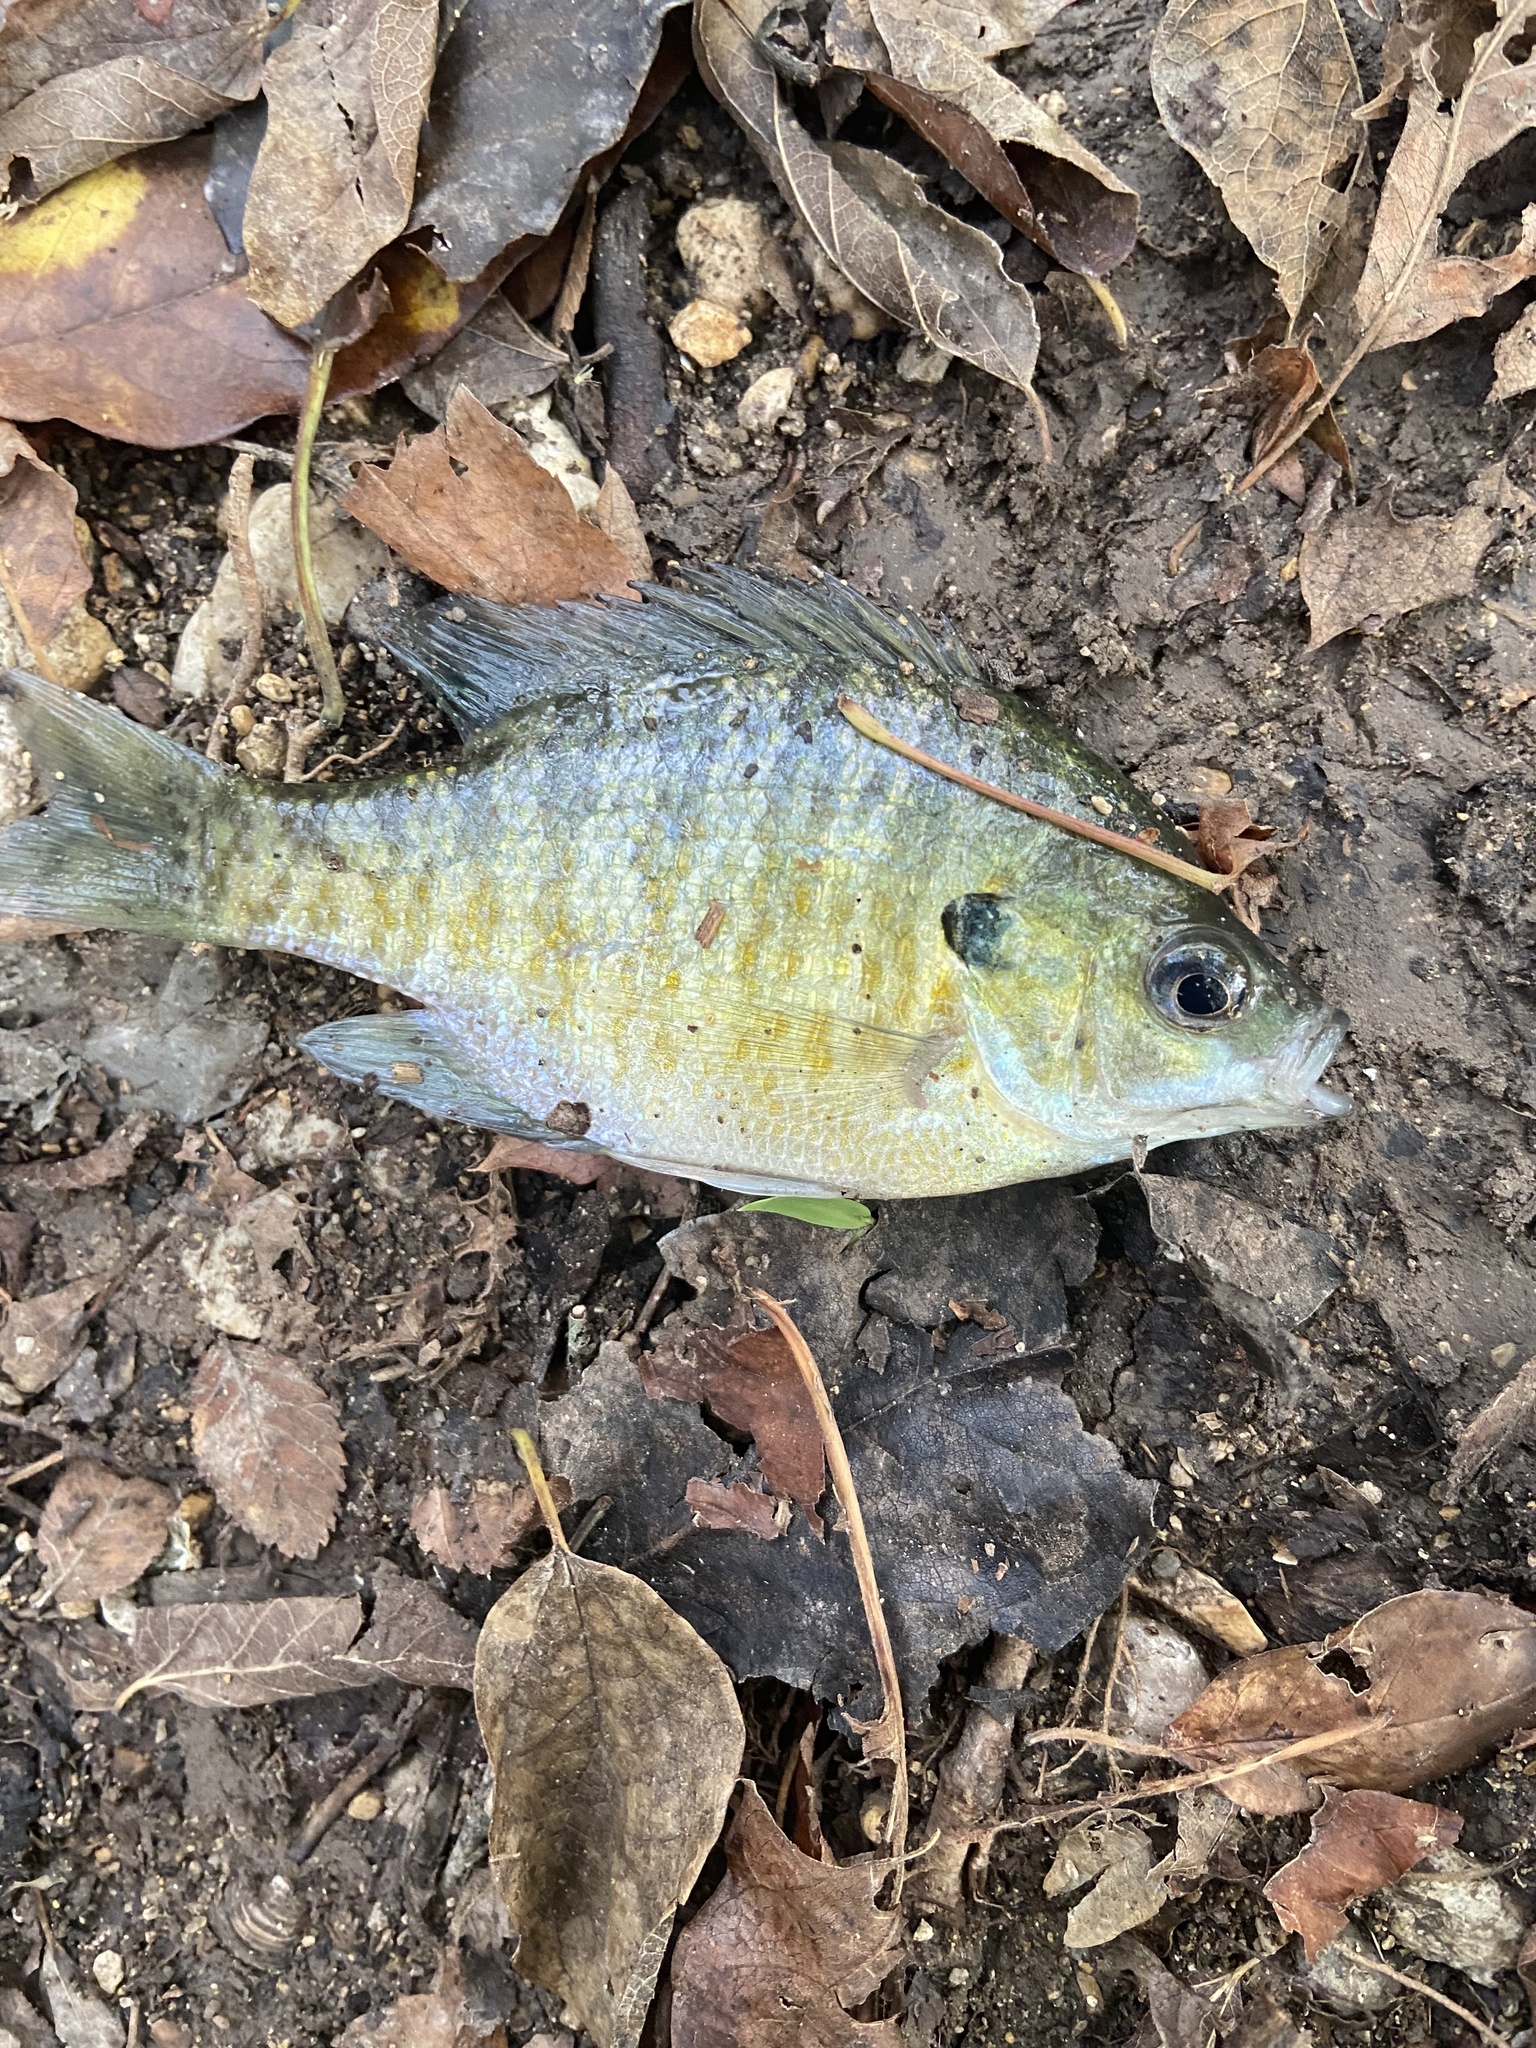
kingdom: Animalia
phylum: Chordata
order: Perciformes
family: Centrarchidae
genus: Lepomis
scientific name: Lepomis macrochirus
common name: Bluegill
